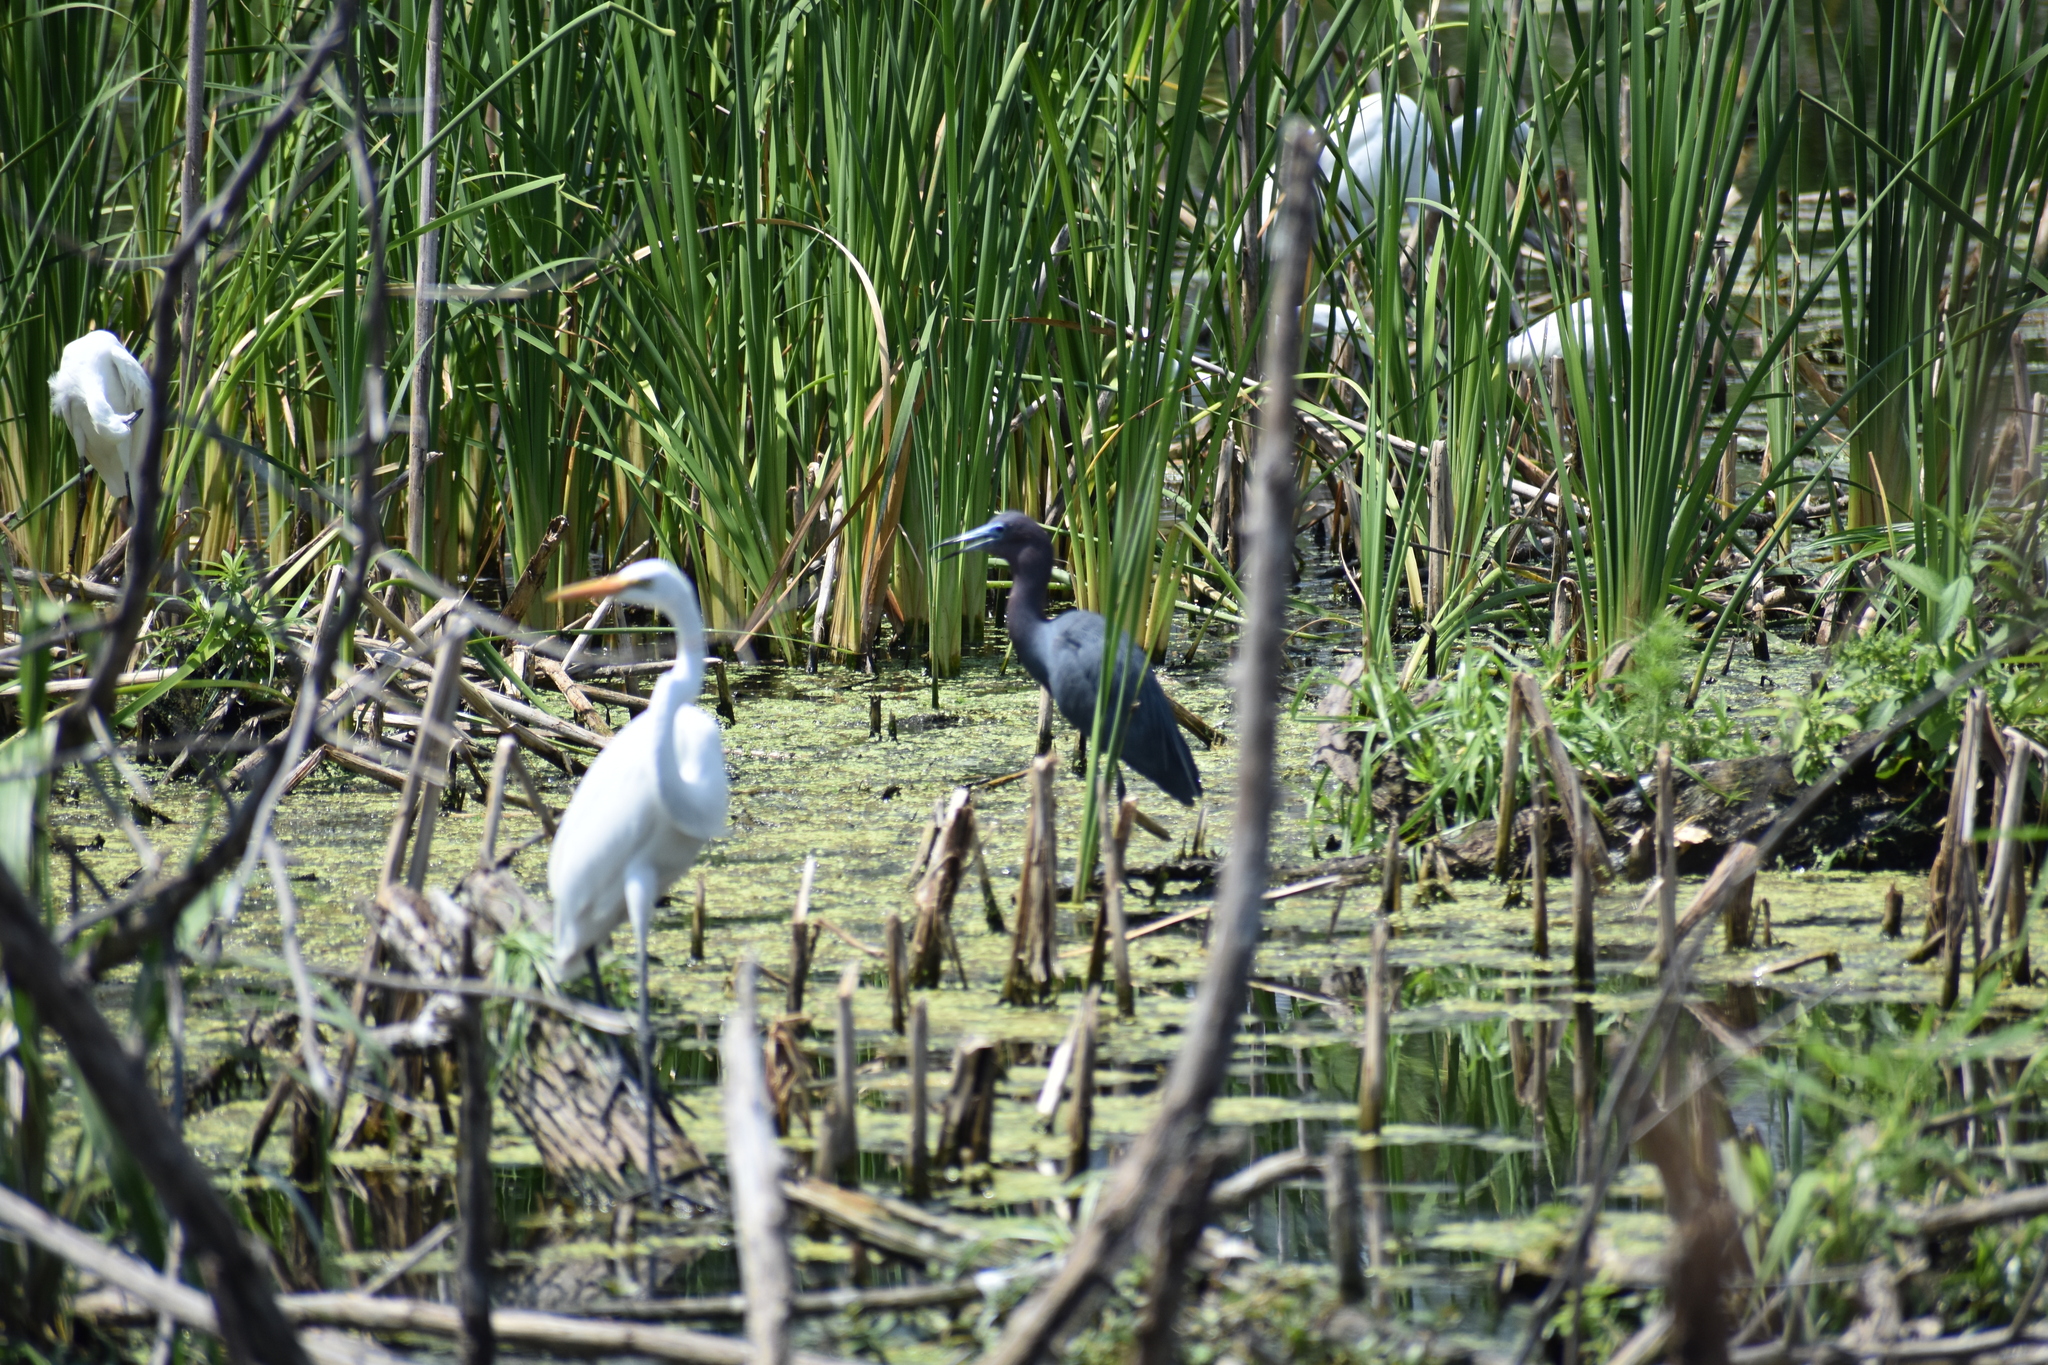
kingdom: Animalia
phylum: Chordata
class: Aves
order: Pelecaniformes
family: Ardeidae
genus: Egretta
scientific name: Egretta caerulea
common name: Little blue heron
